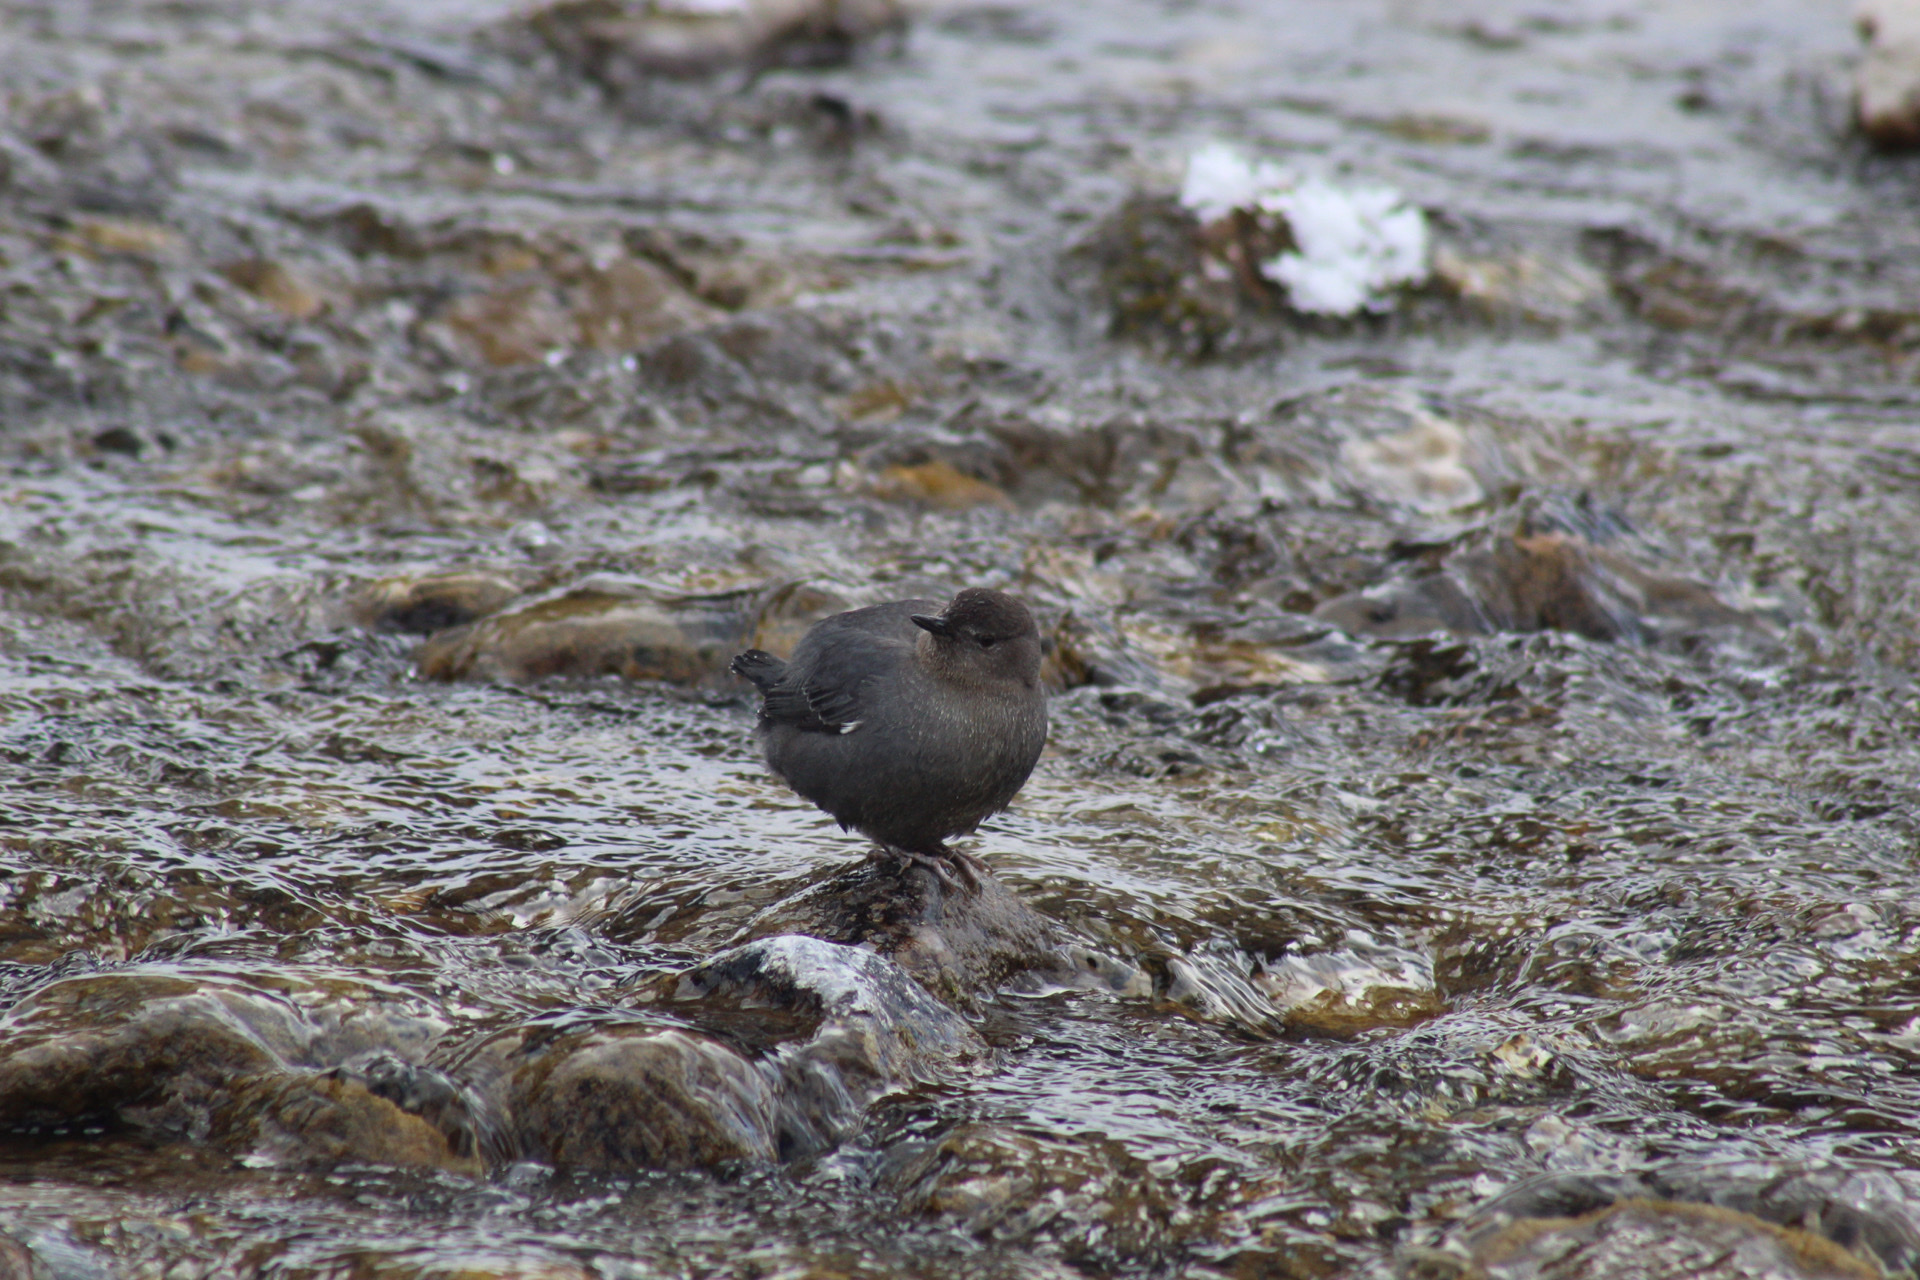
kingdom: Animalia
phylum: Chordata
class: Aves
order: Passeriformes
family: Cinclidae
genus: Cinclus
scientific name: Cinclus mexicanus
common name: American dipper
